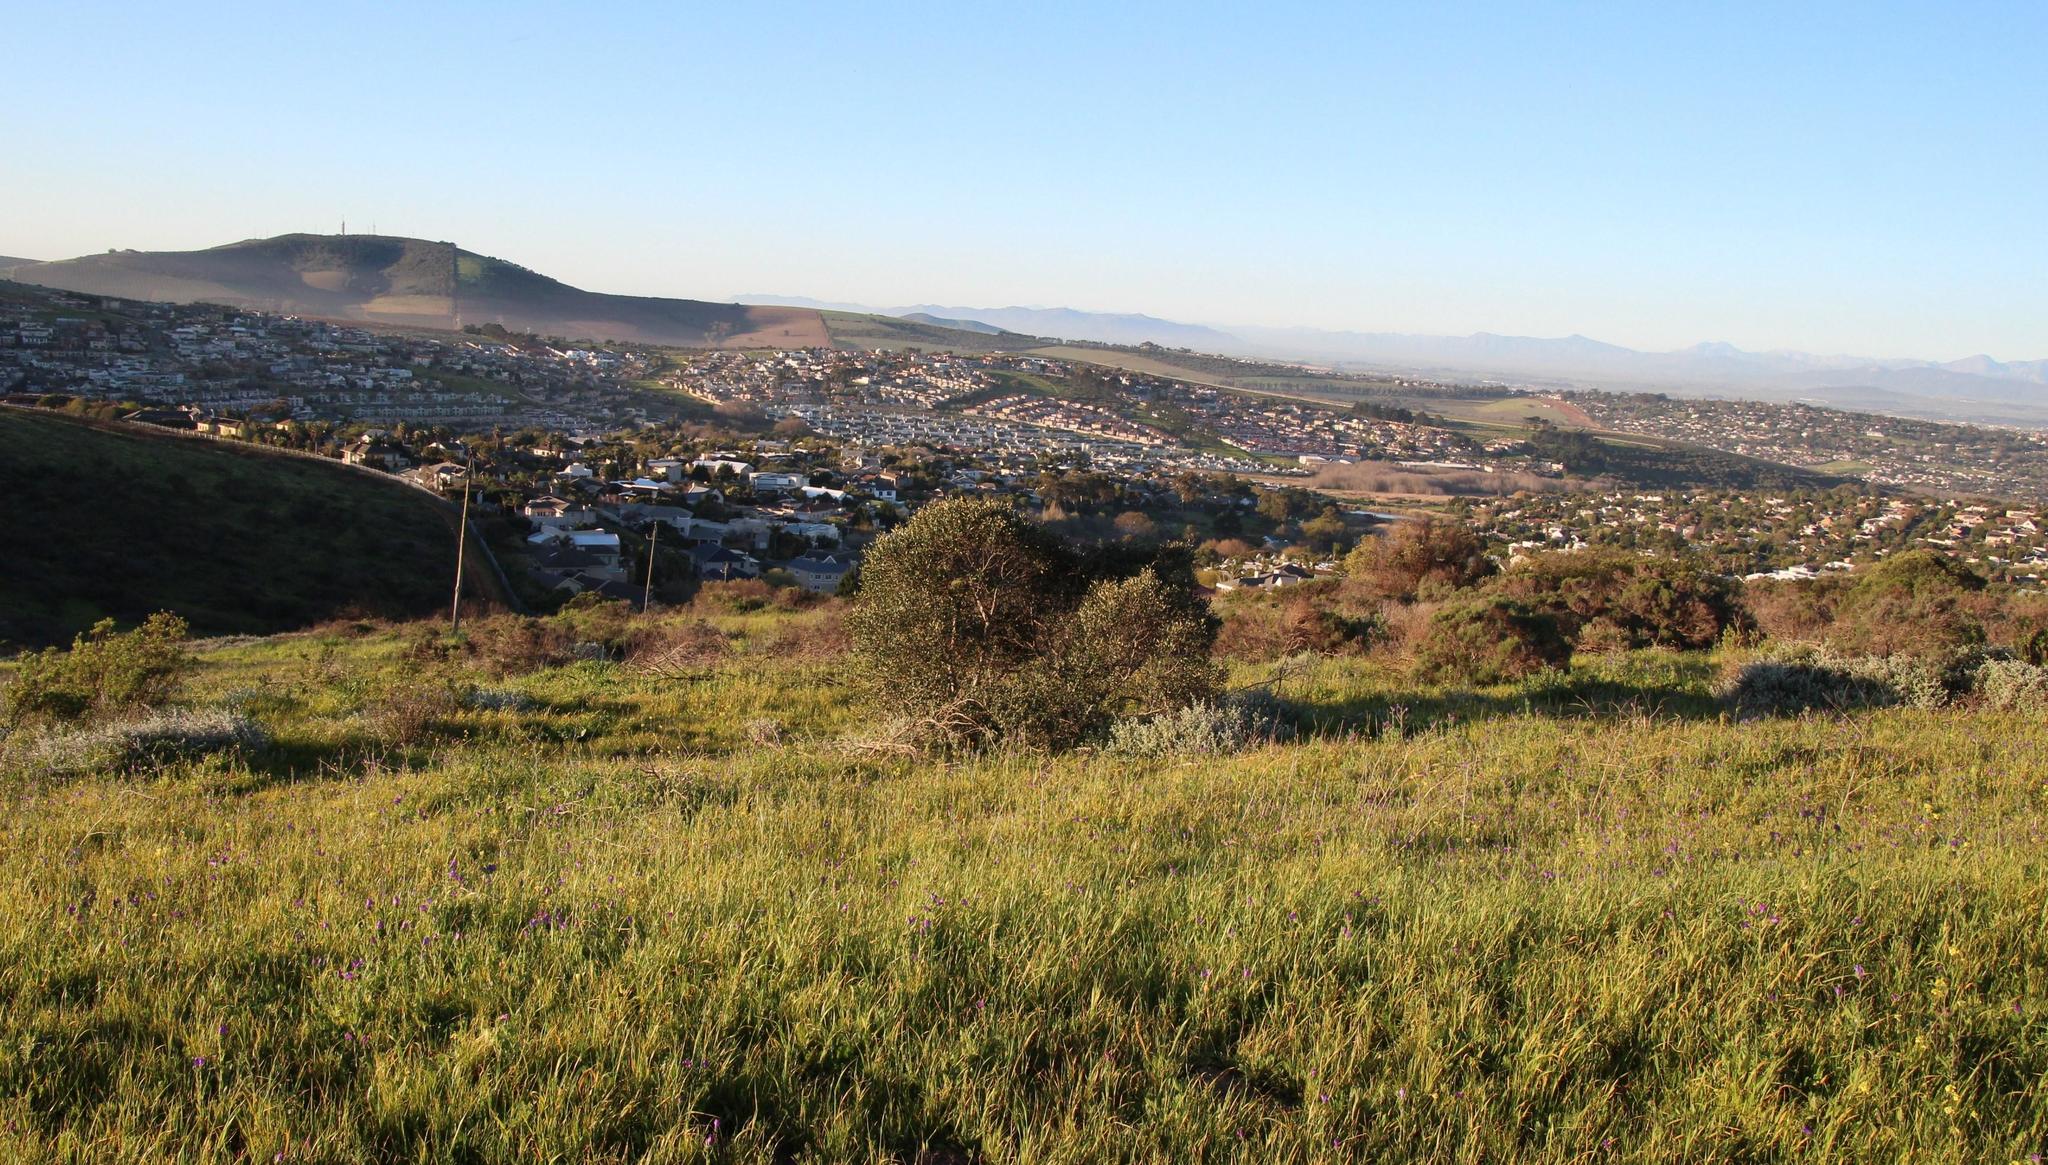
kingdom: Plantae
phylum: Tracheophyta
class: Magnoliopsida
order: Lamiales
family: Oleaceae
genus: Olea
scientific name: Olea europaea
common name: Olive
